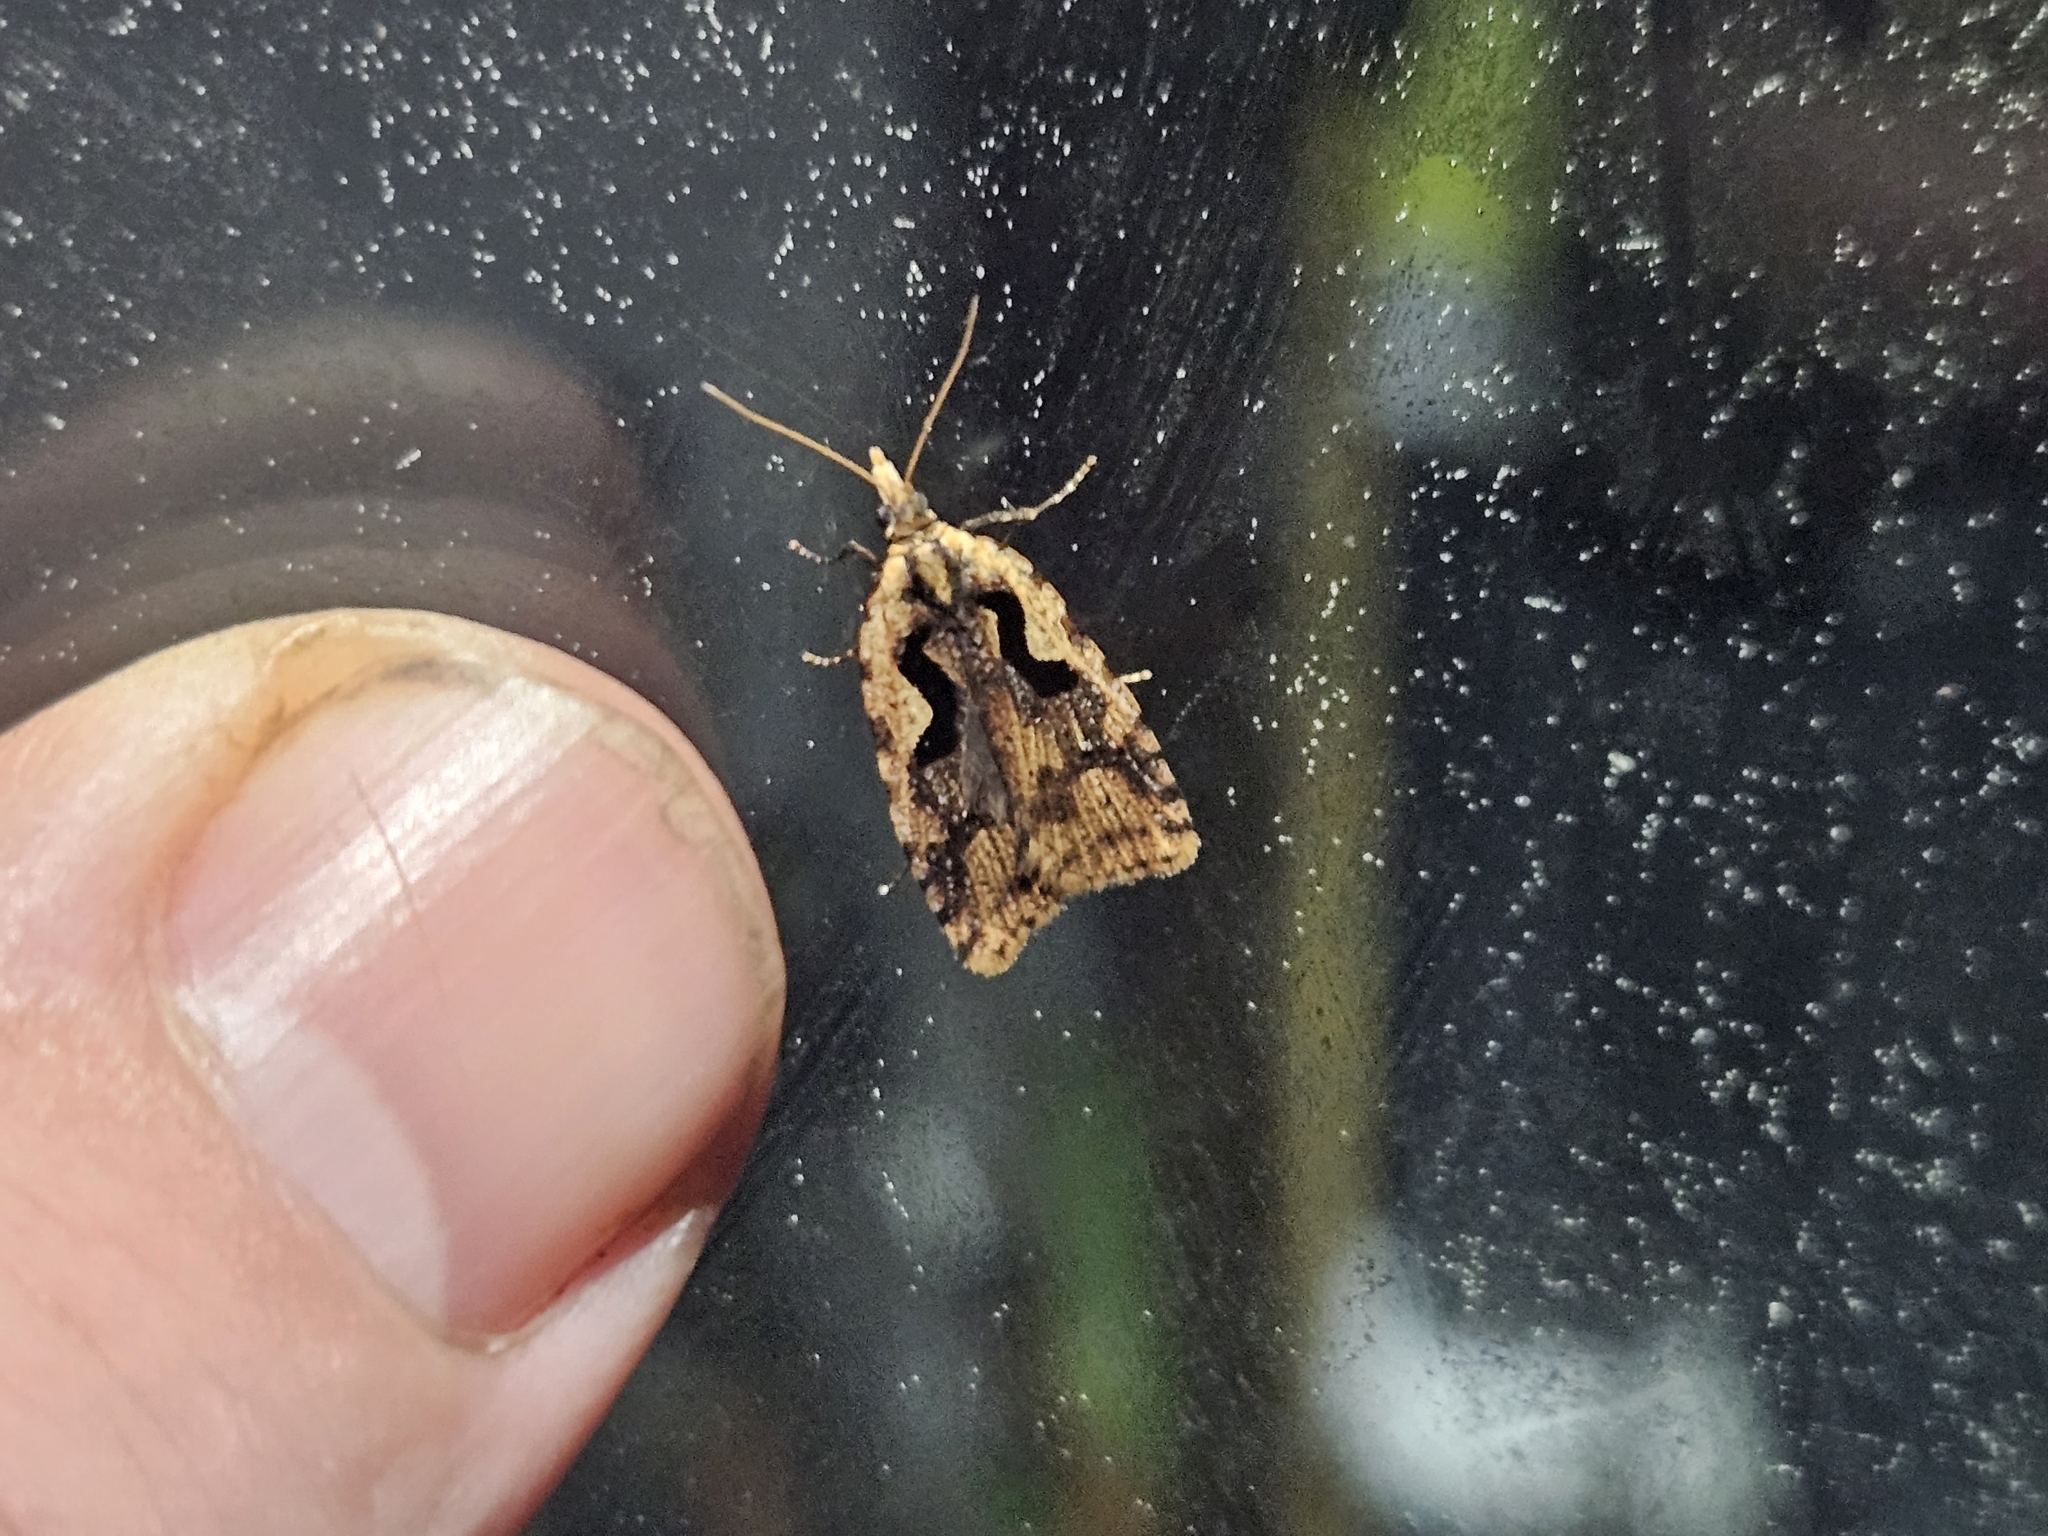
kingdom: Animalia
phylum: Arthropoda
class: Insecta
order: Lepidoptera
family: Tortricidae
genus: Cnephasia
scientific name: Cnephasia jactatana
